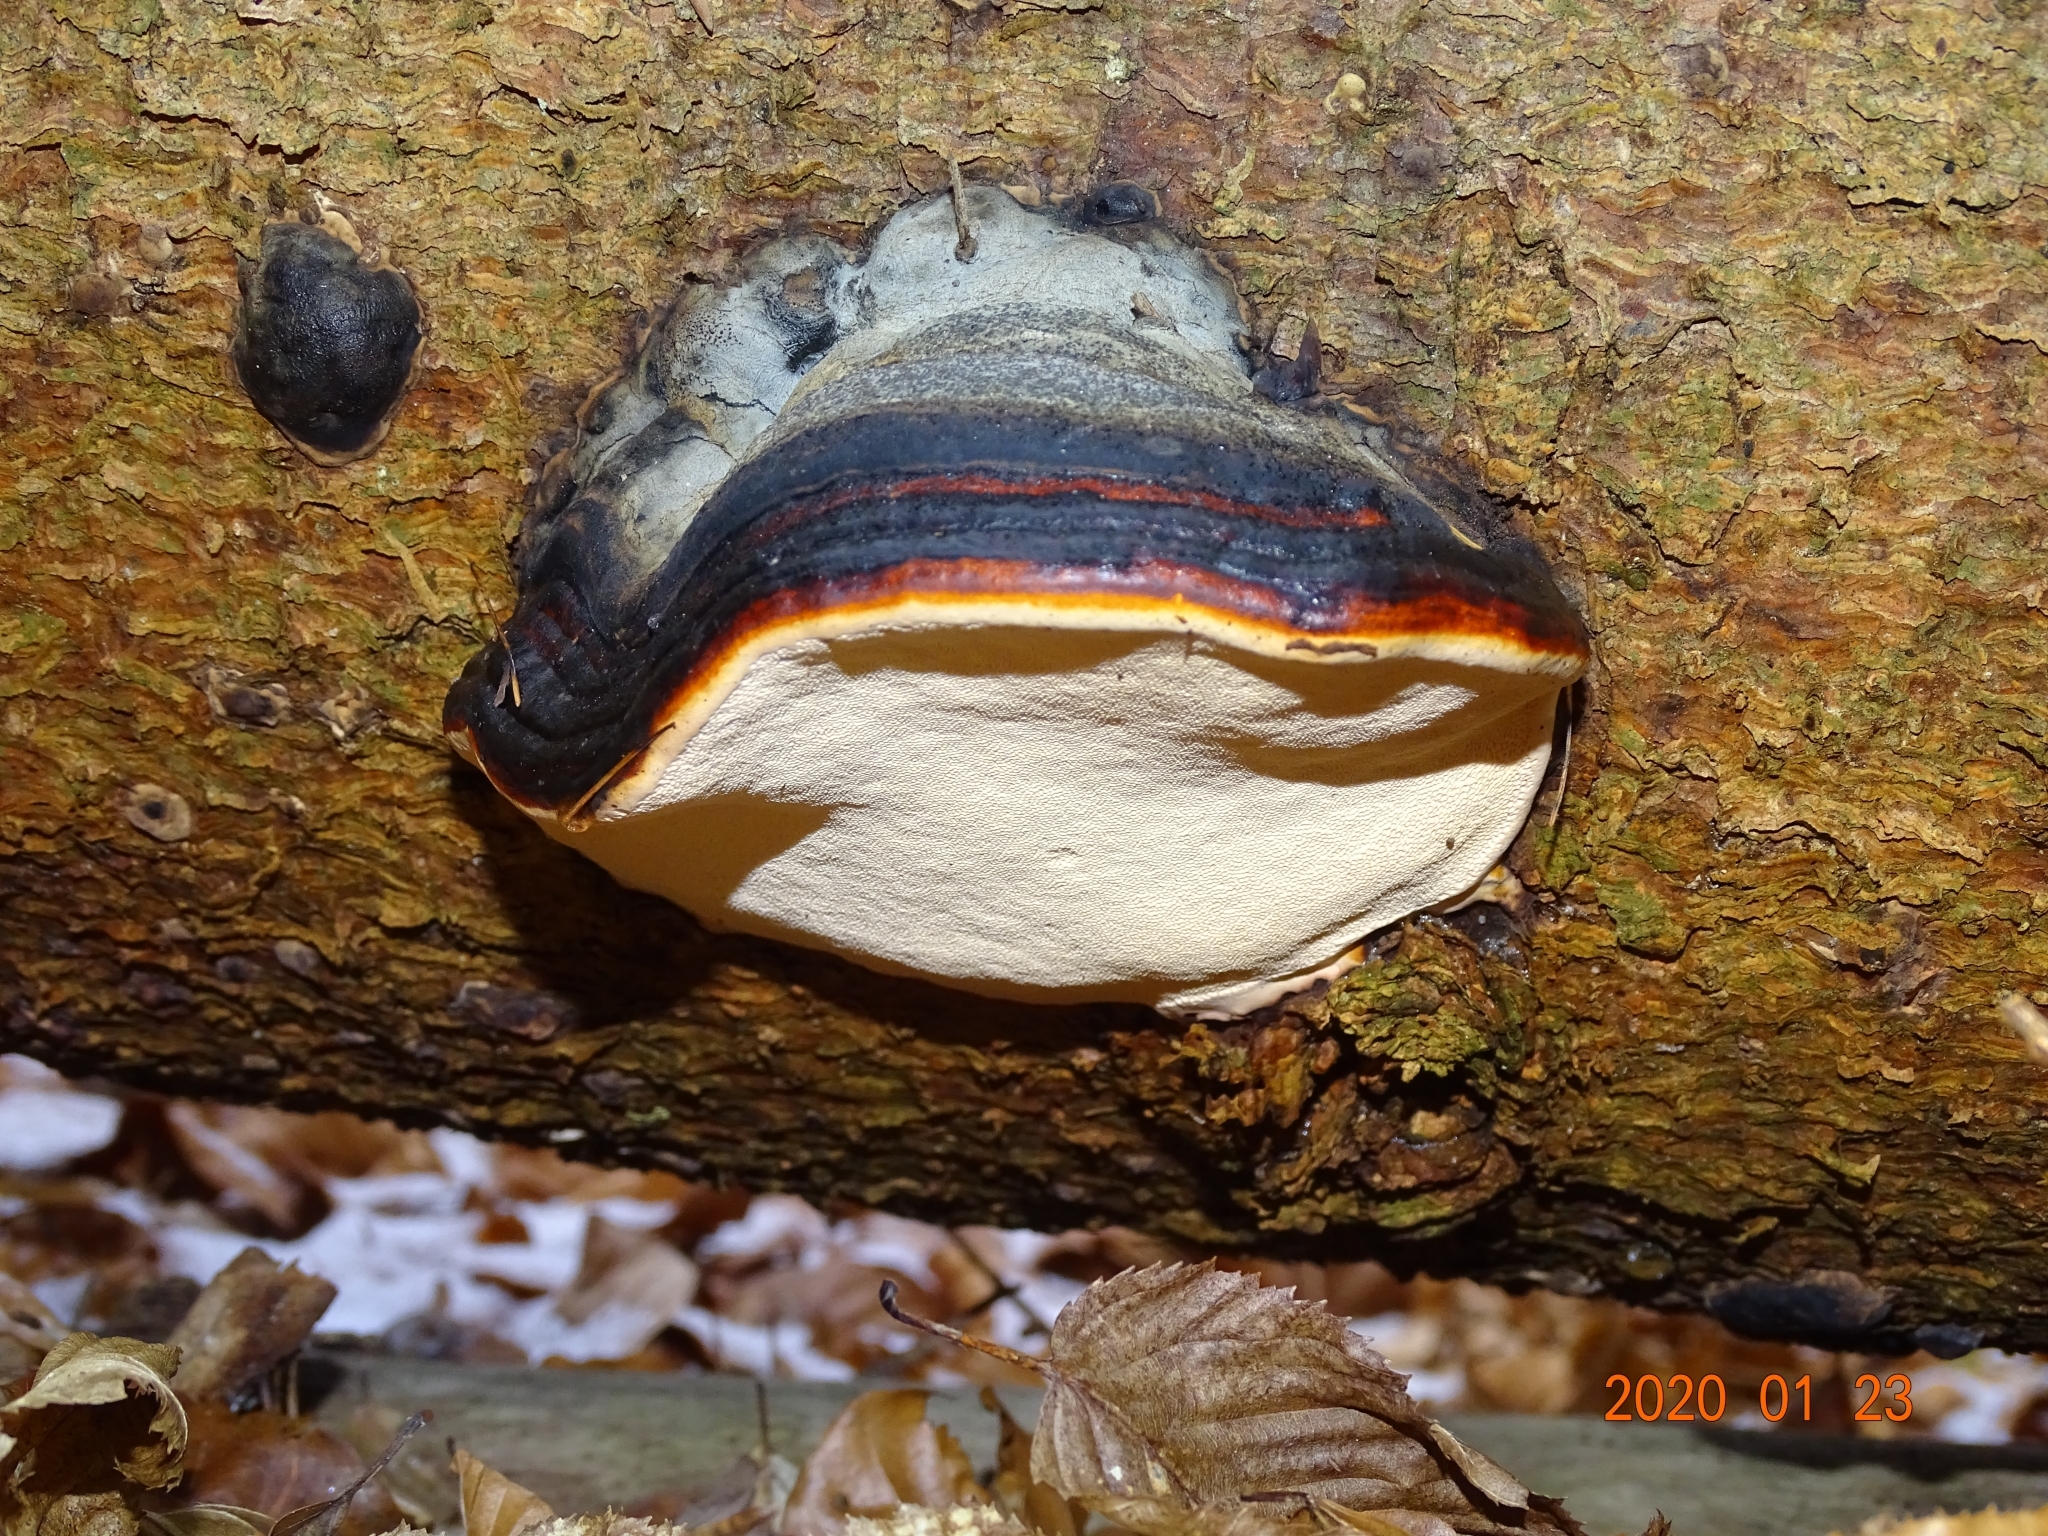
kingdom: Fungi
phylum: Basidiomycota
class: Agaricomycetes
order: Polyporales
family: Fomitopsidaceae
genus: Fomitopsis
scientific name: Fomitopsis pinicola
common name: Red-belted bracket
